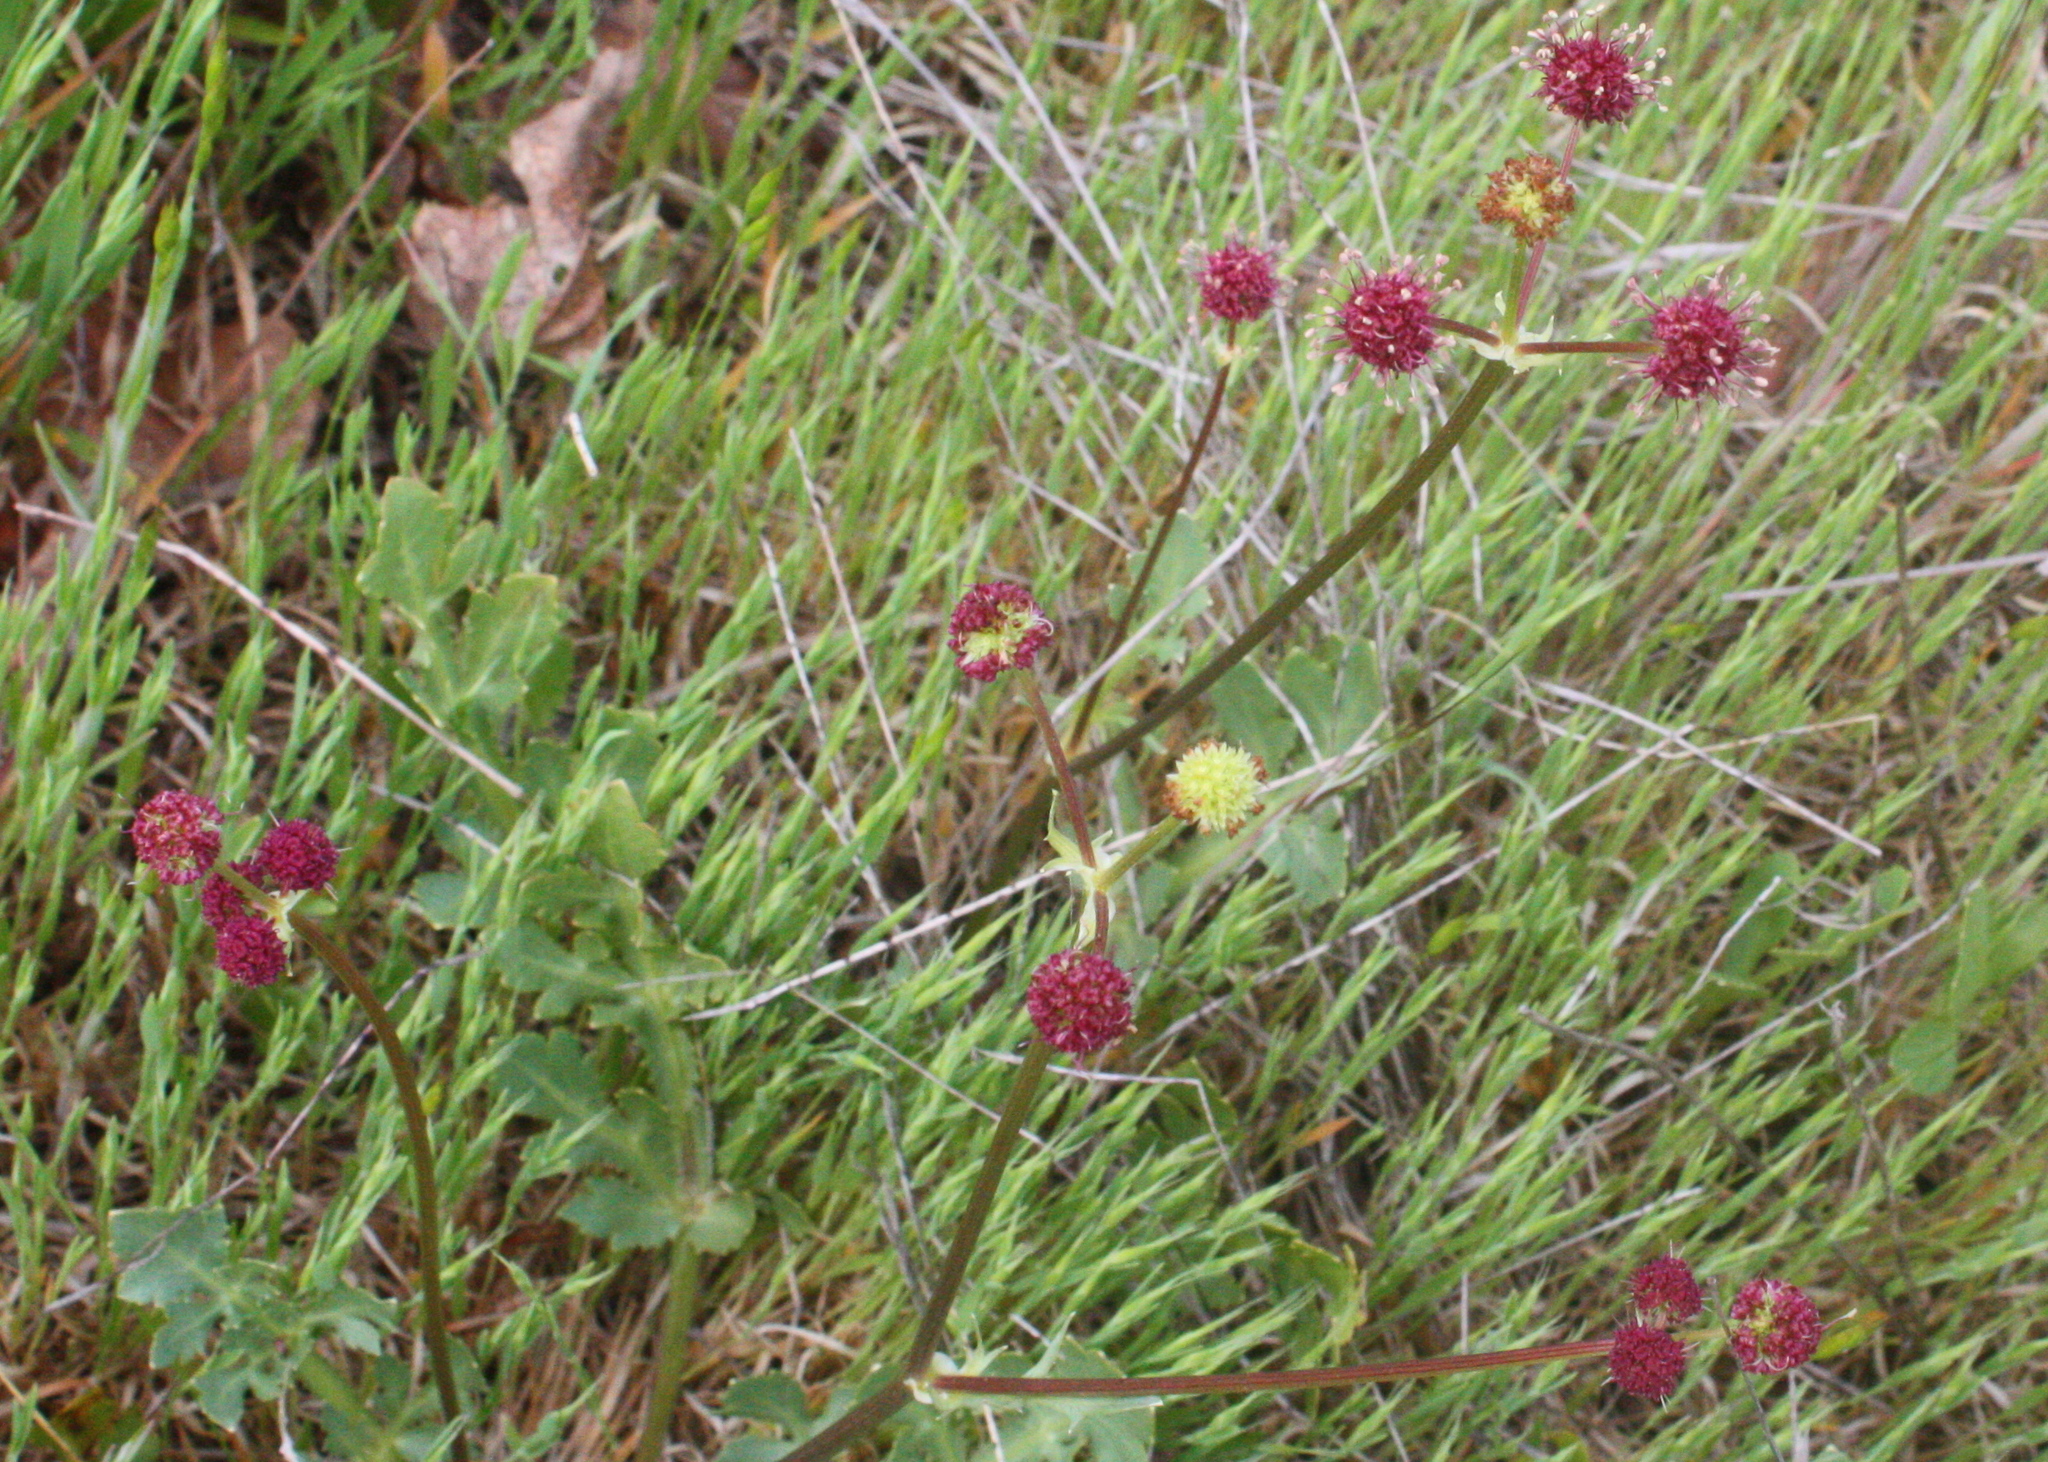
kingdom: Plantae
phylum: Tracheophyta
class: Magnoliopsida
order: Apiales
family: Apiaceae
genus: Sanicula
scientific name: Sanicula bipinnatifida
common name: Shoe-buttons
